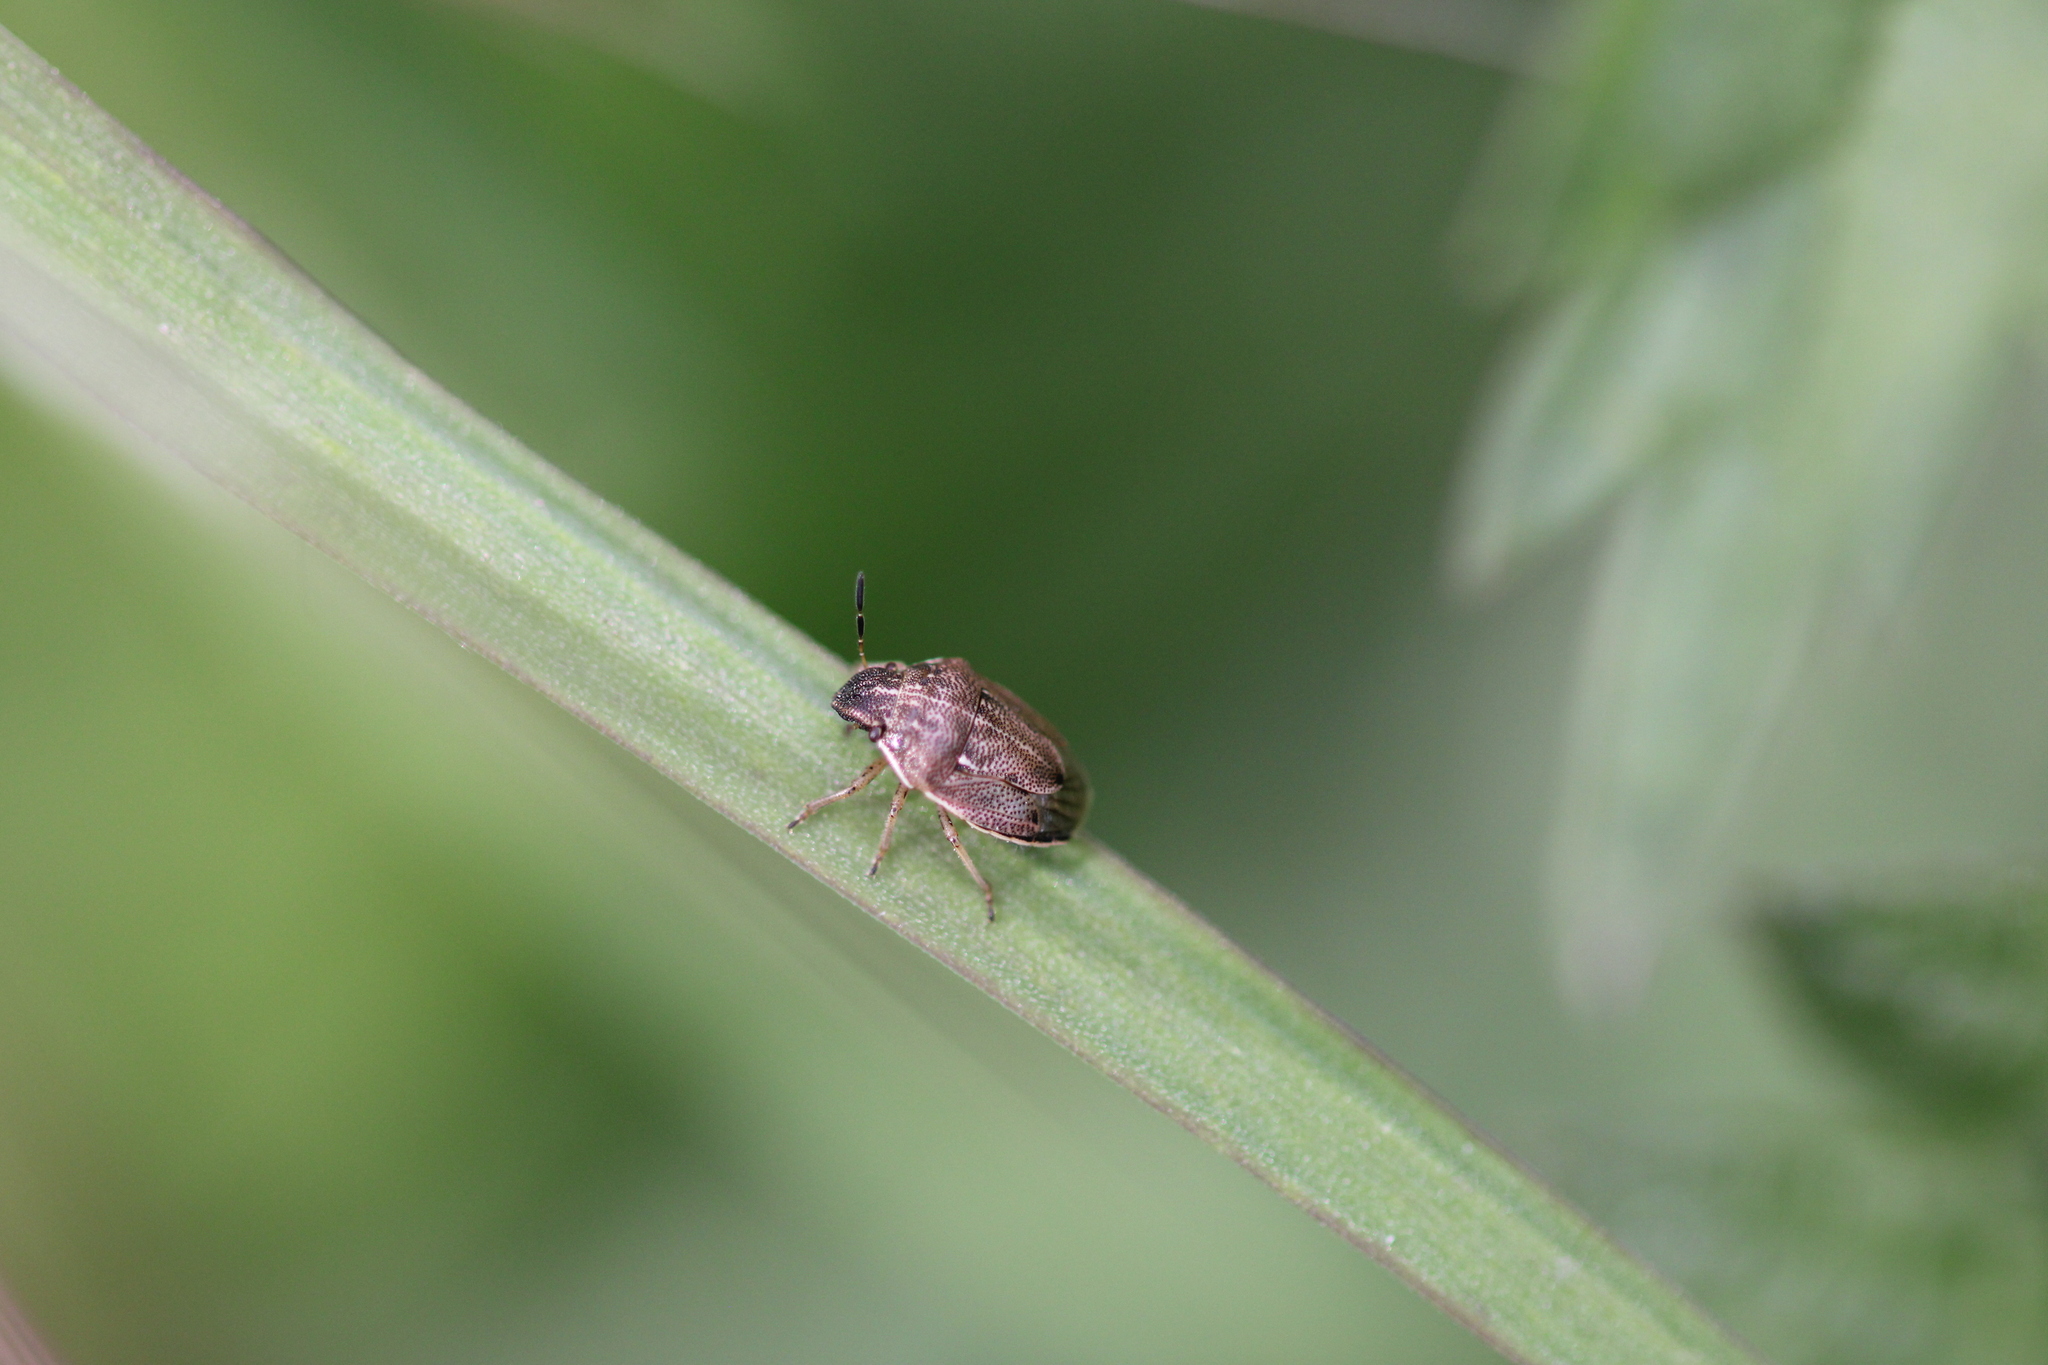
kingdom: Animalia
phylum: Arthropoda
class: Insecta
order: Hemiptera
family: Pentatomidae
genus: Neottiglossa
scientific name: Neottiglossa pusilla
